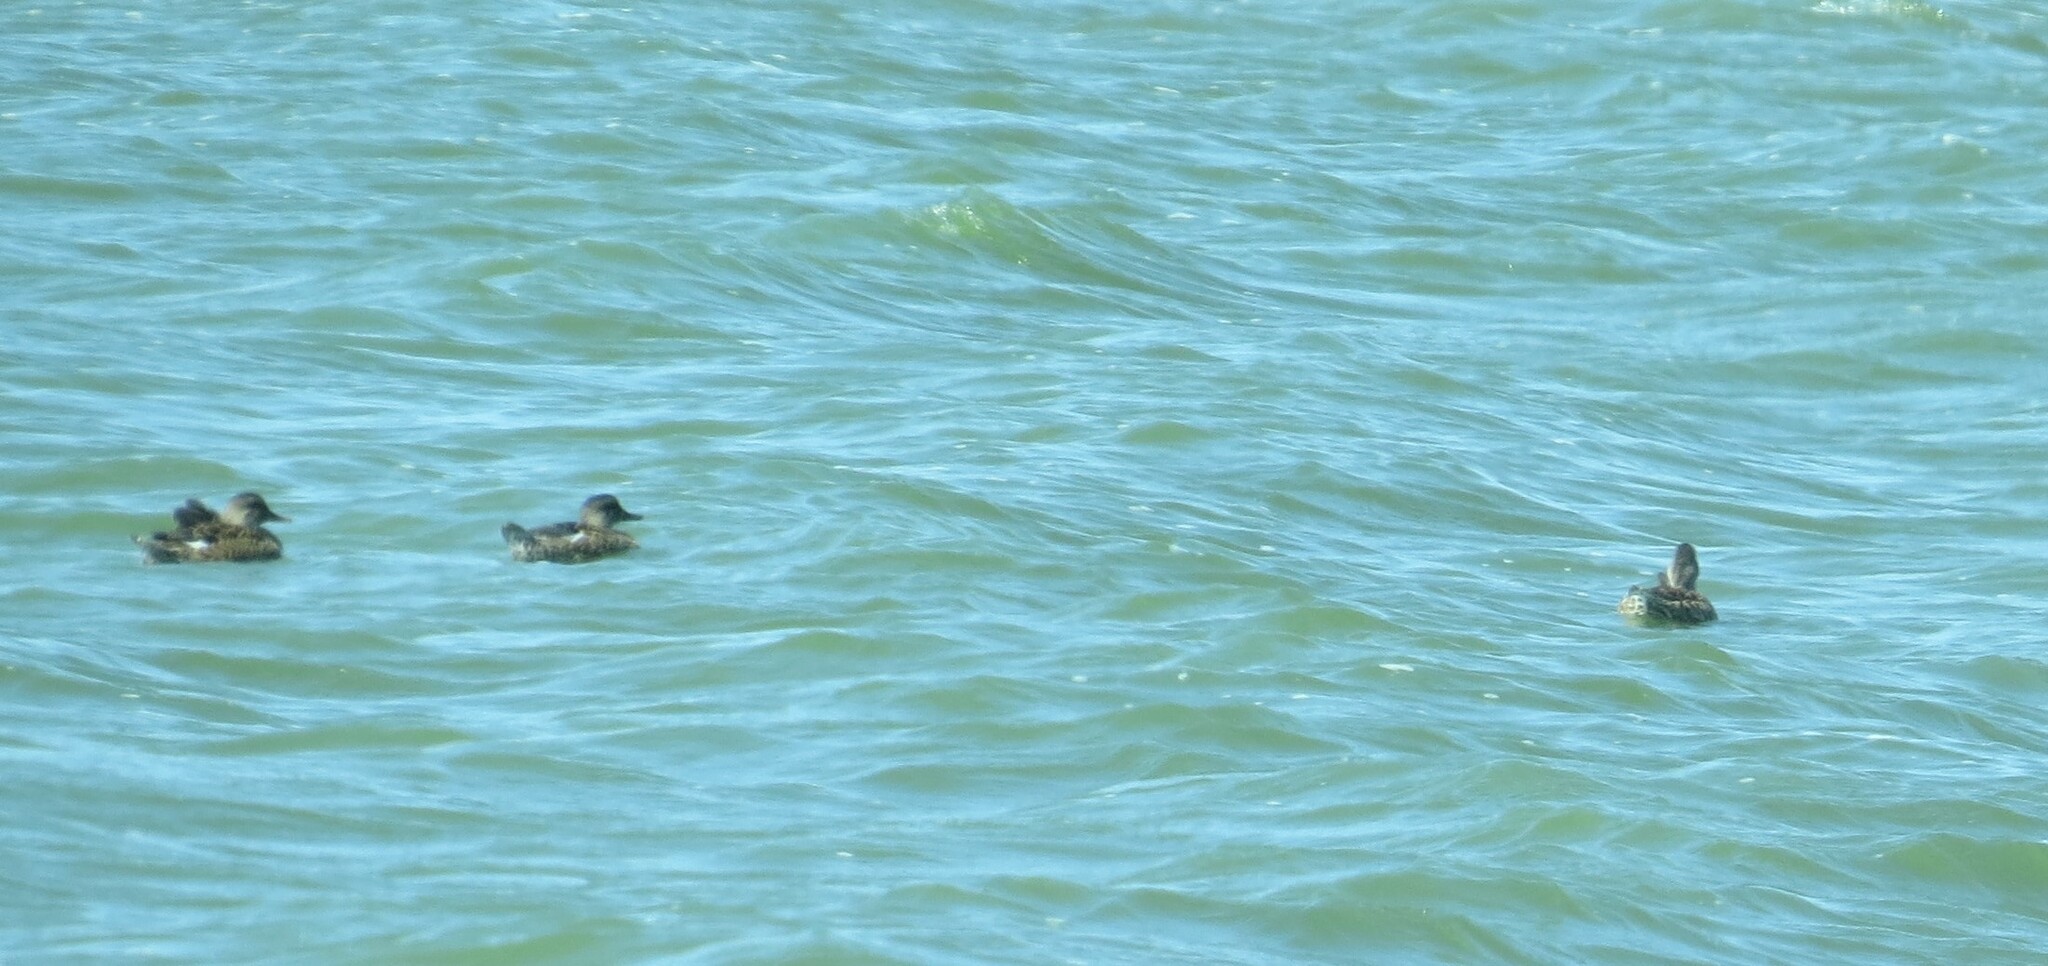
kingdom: Animalia
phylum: Chordata
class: Aves
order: Anseriformes
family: Anatidae
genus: Mareca
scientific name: Mareca strepera
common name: Gadwall
